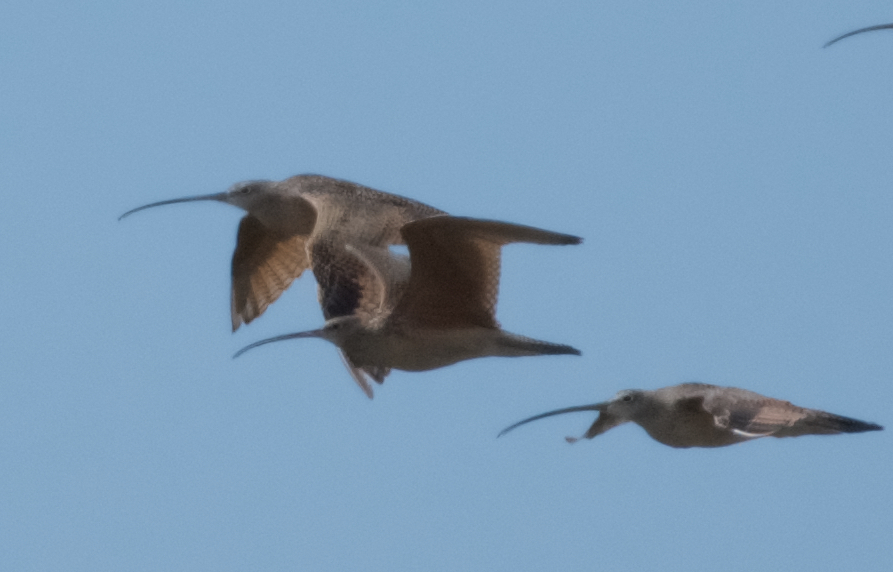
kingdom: Animalia
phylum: Chordata
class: Aves
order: Charadriiformes
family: Scolopacidae
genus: Numenius
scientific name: Numenius americanus
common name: Long-billed curlew
